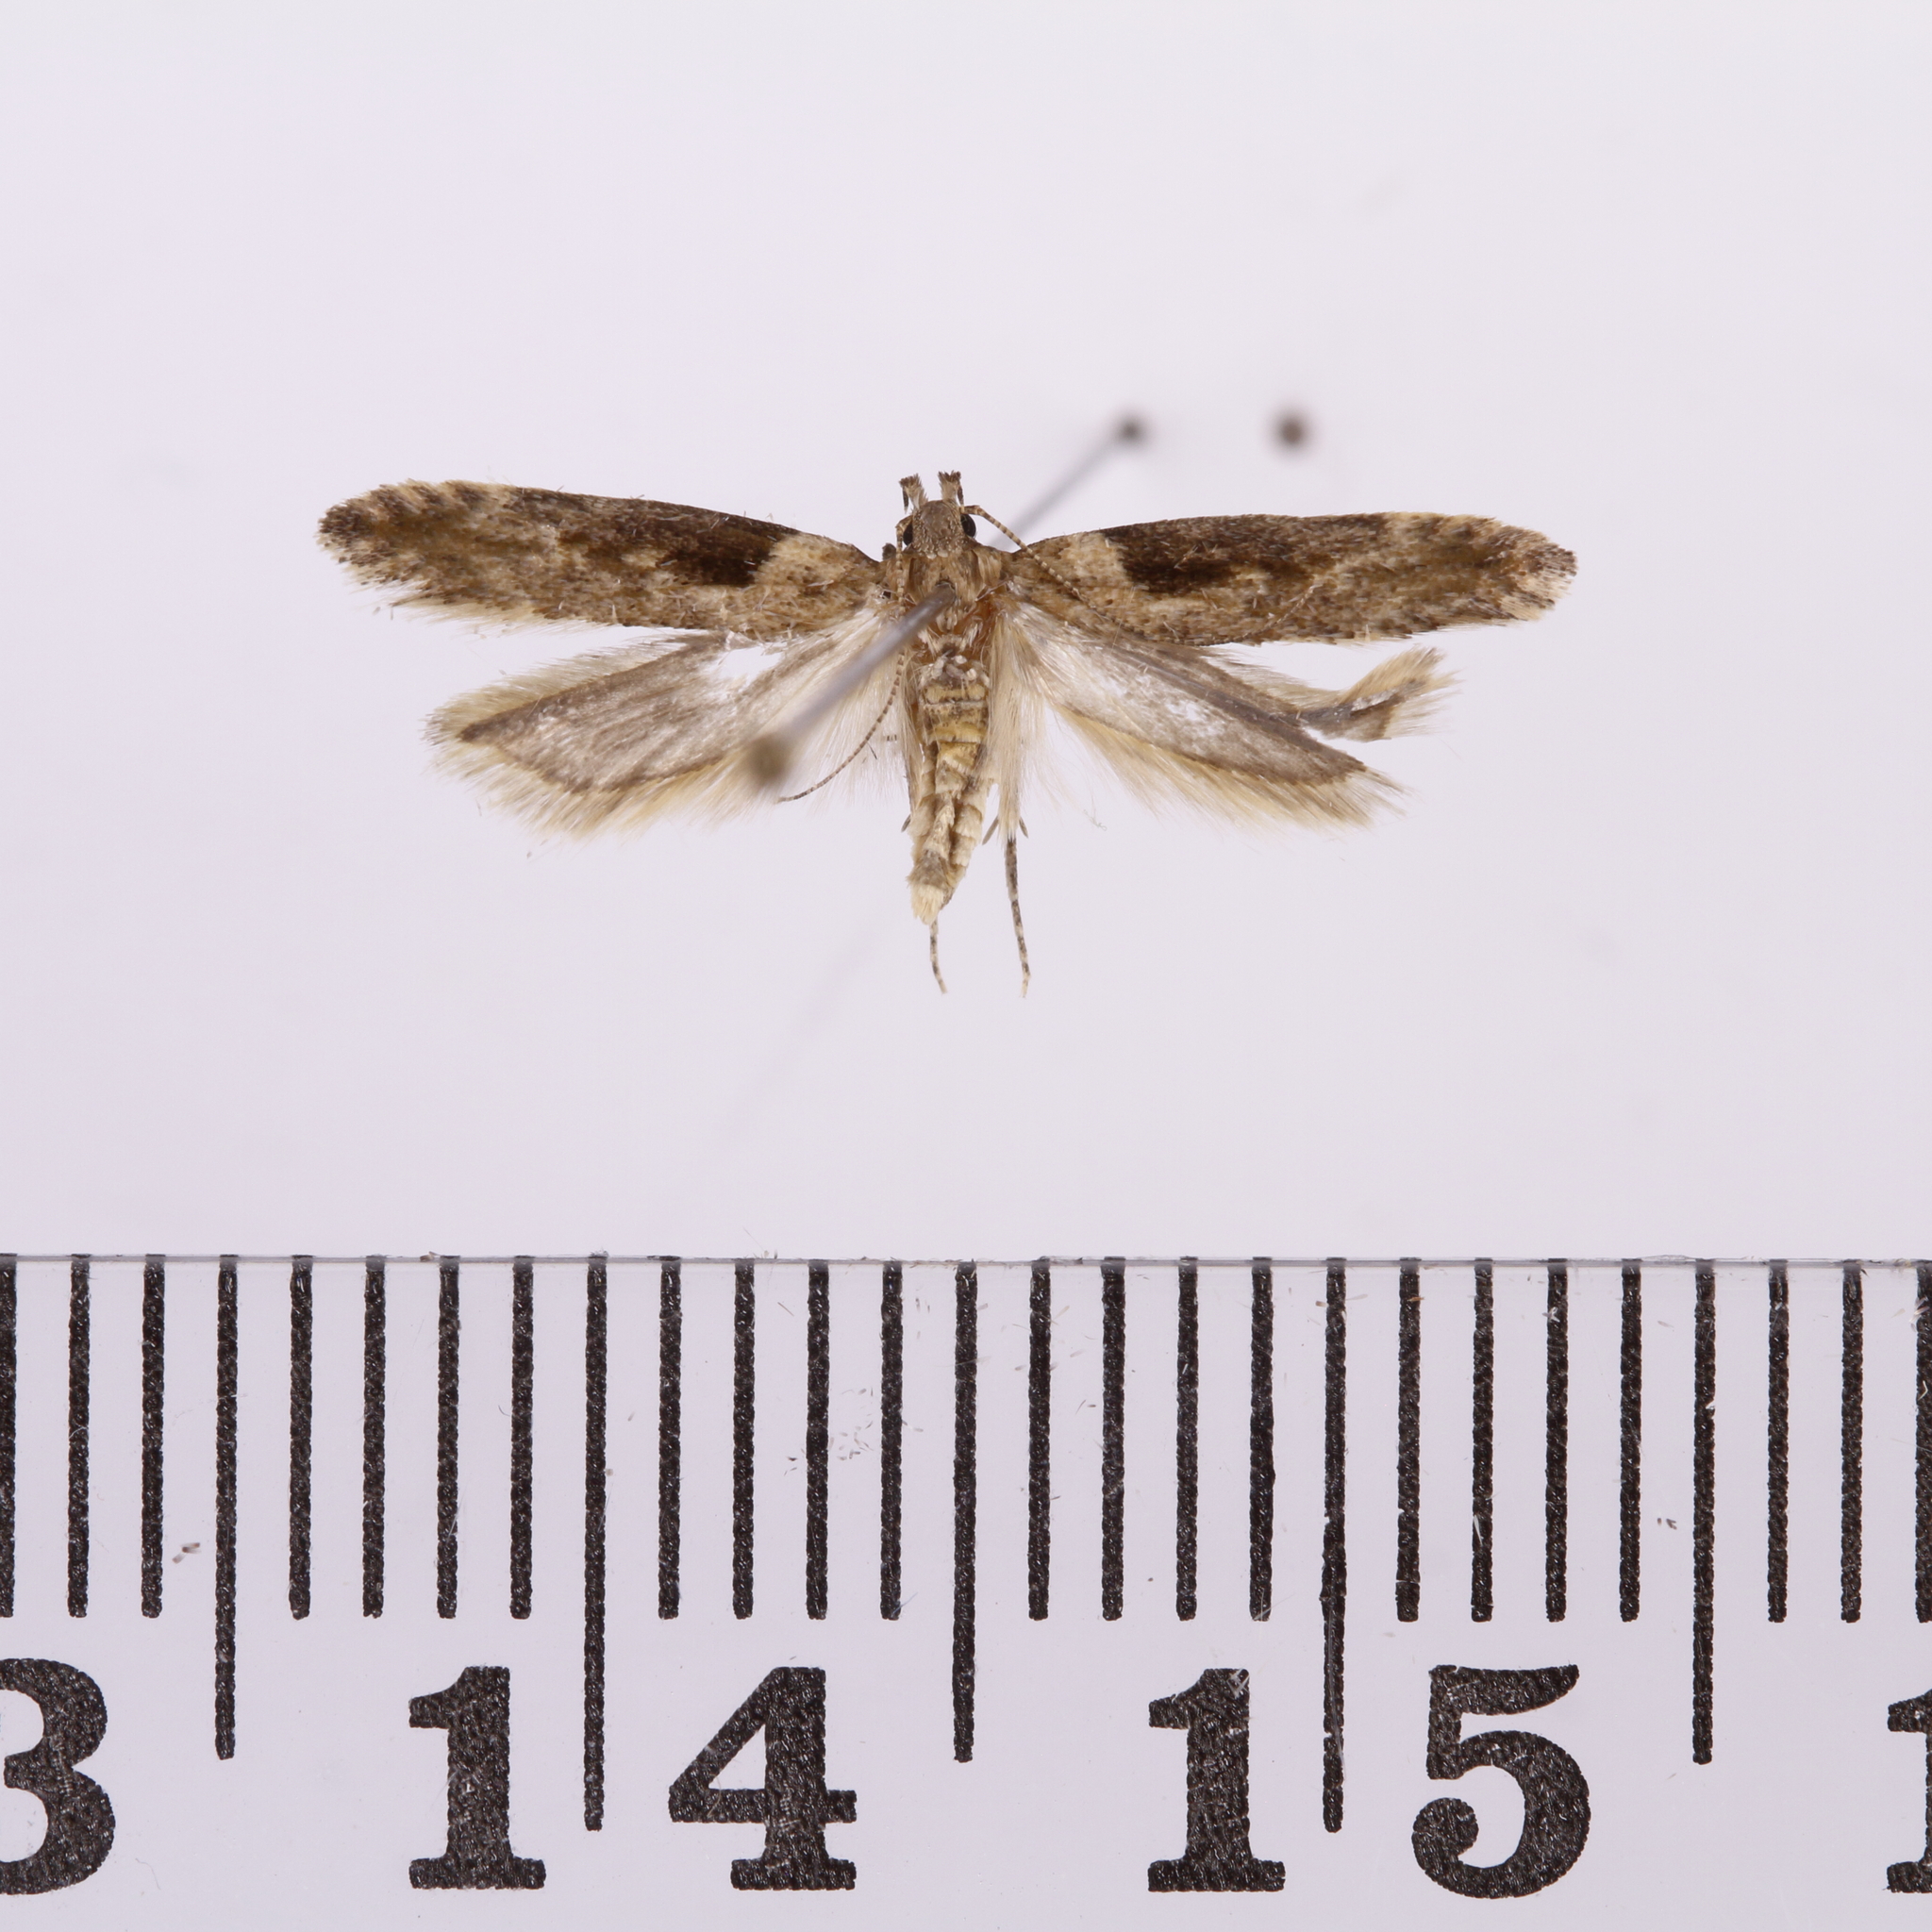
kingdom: Animalia
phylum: Arthropoda
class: Insecta
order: Lepidoptera
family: Gelechiidae
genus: Symmetrischema
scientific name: Symmetrischema tangolias
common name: Moth
